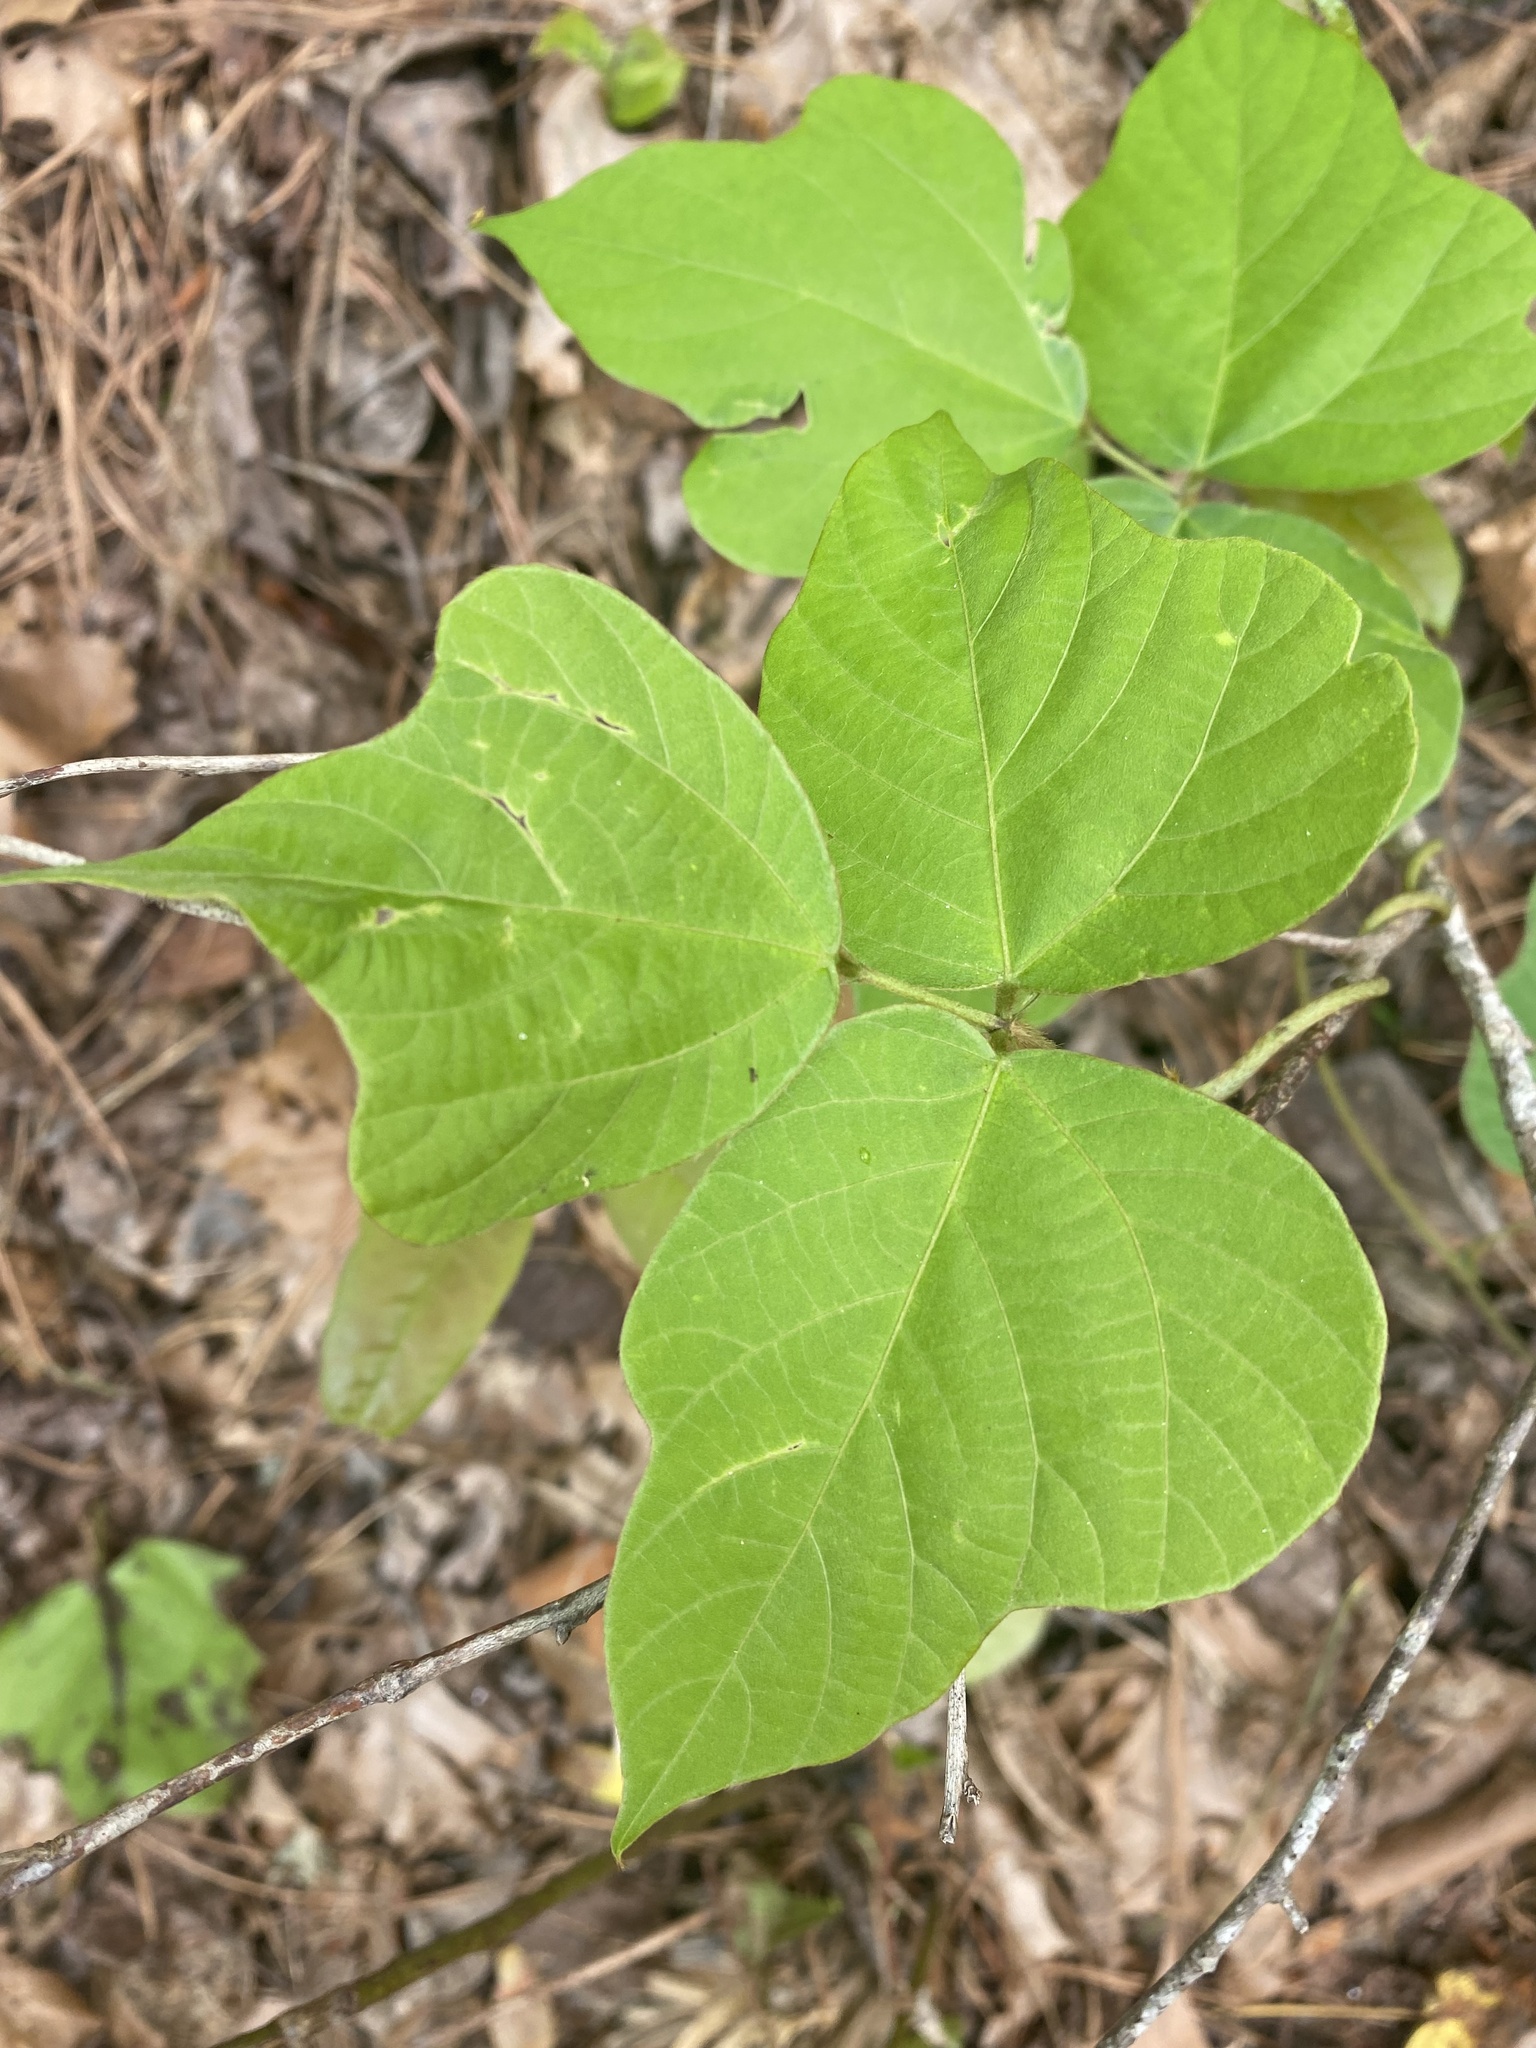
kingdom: Plantae
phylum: Tracheophyta
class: Magnoliopsida
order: Fabales
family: Fabaceae
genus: Pueraria
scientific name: Pueraria montana
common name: Kudzu
